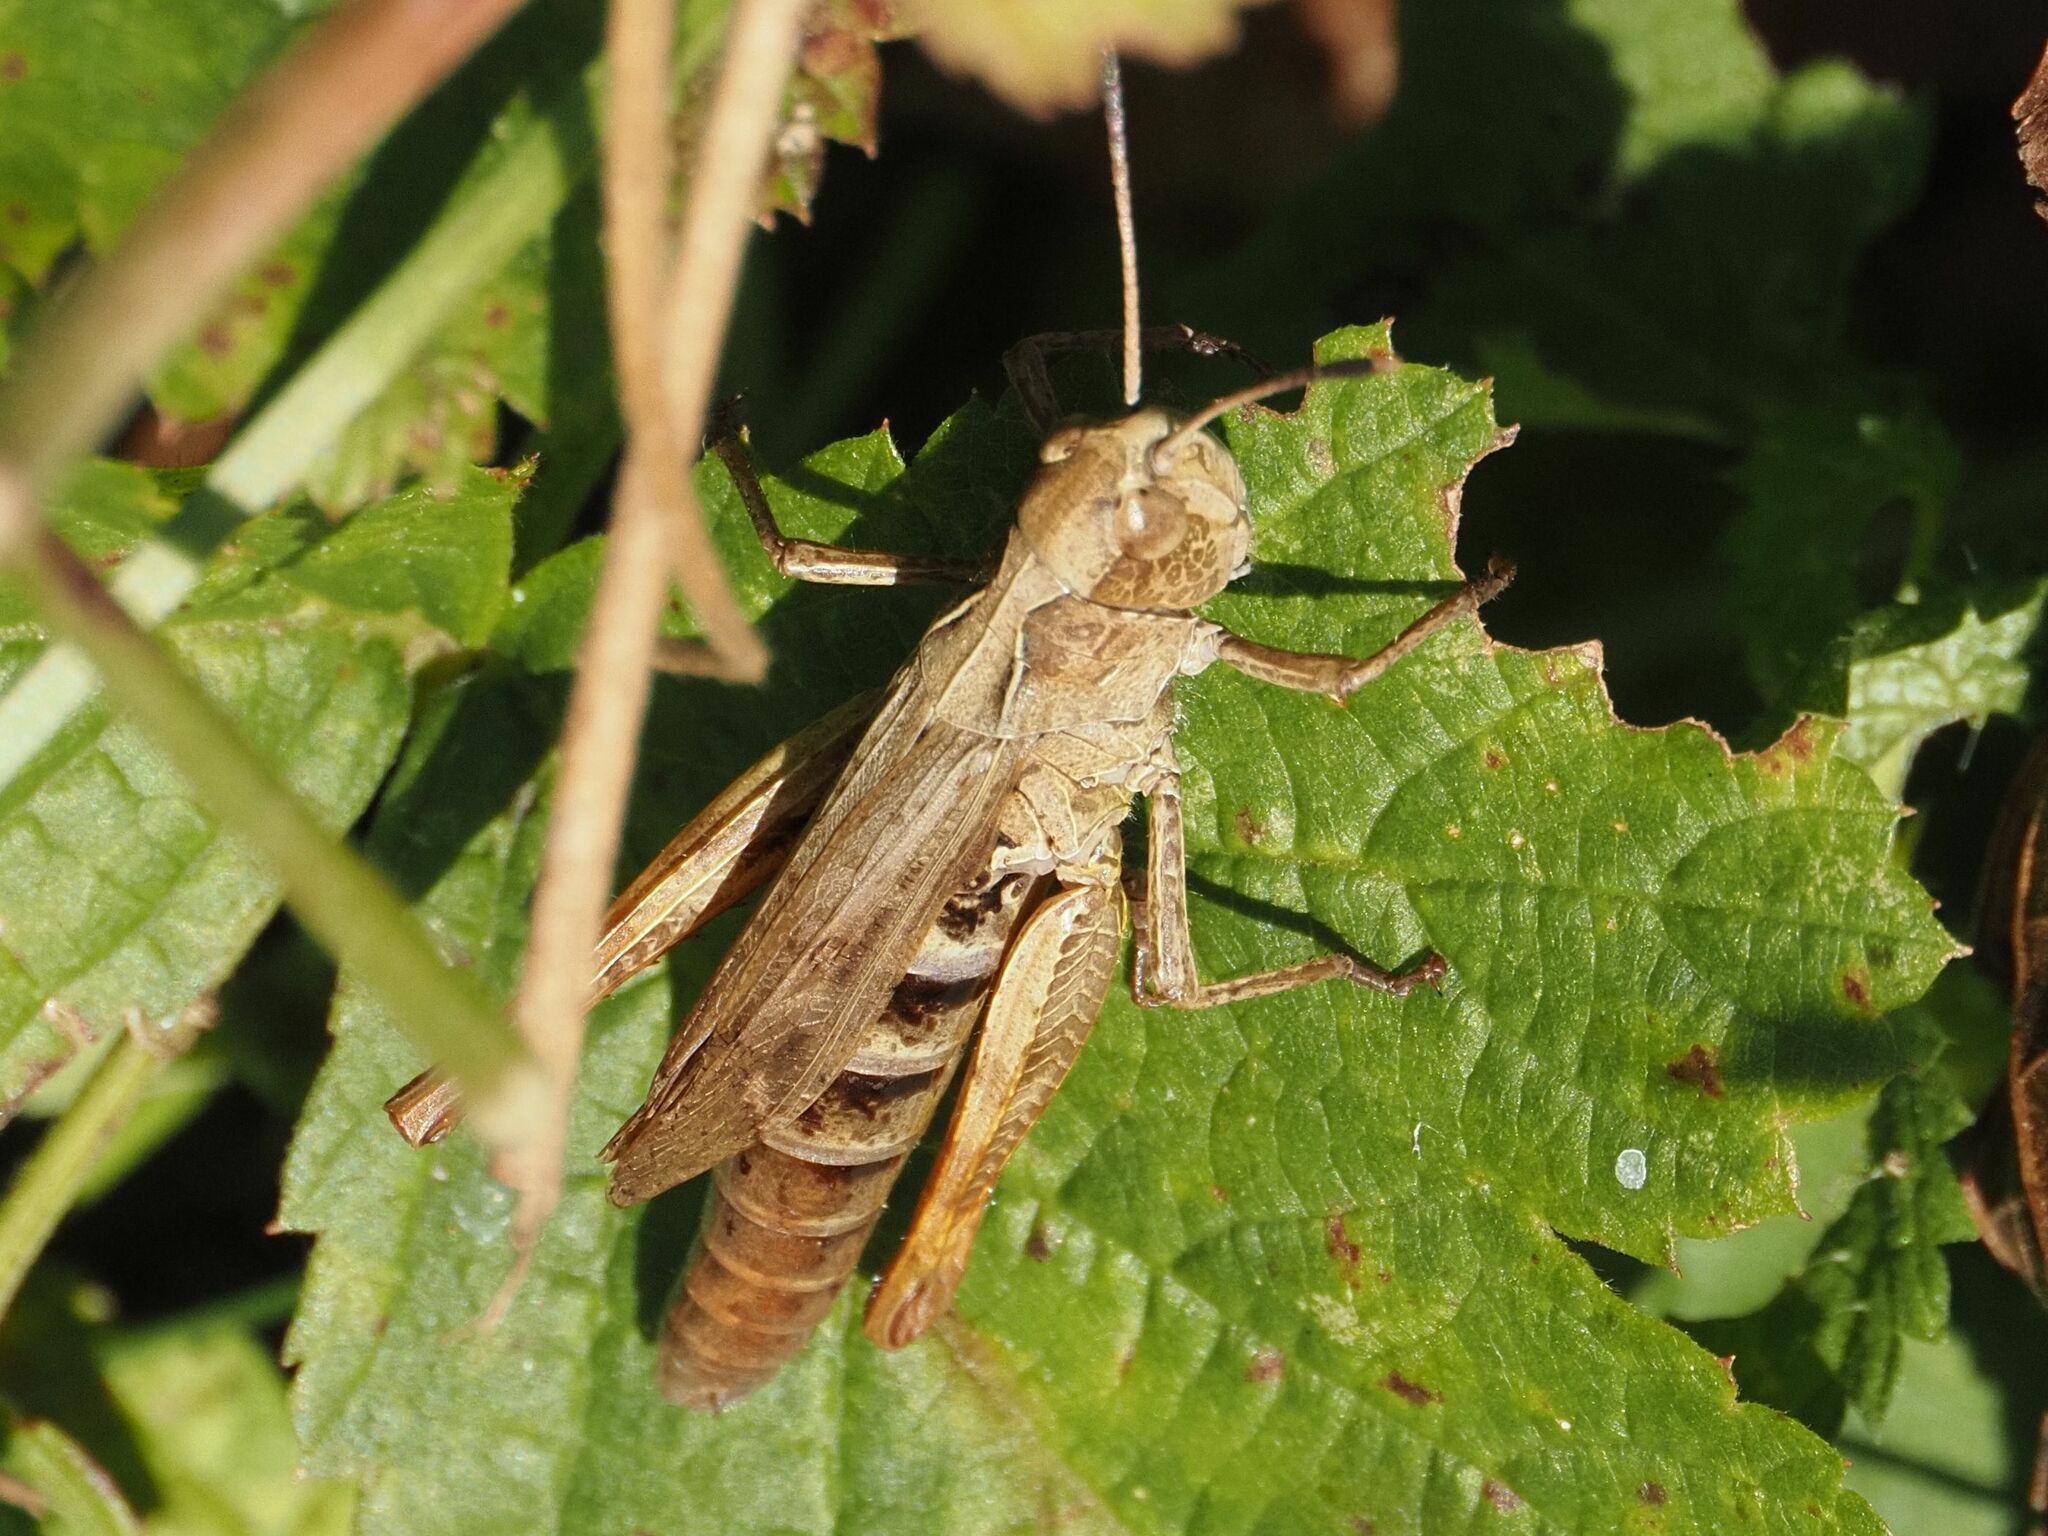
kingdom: Animalia
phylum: Arthropoda
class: Insecta
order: Orthoptera
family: Acrididae
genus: Gomphocerippus
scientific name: Gomphocerippus rufus
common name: Rufous grasshopper
